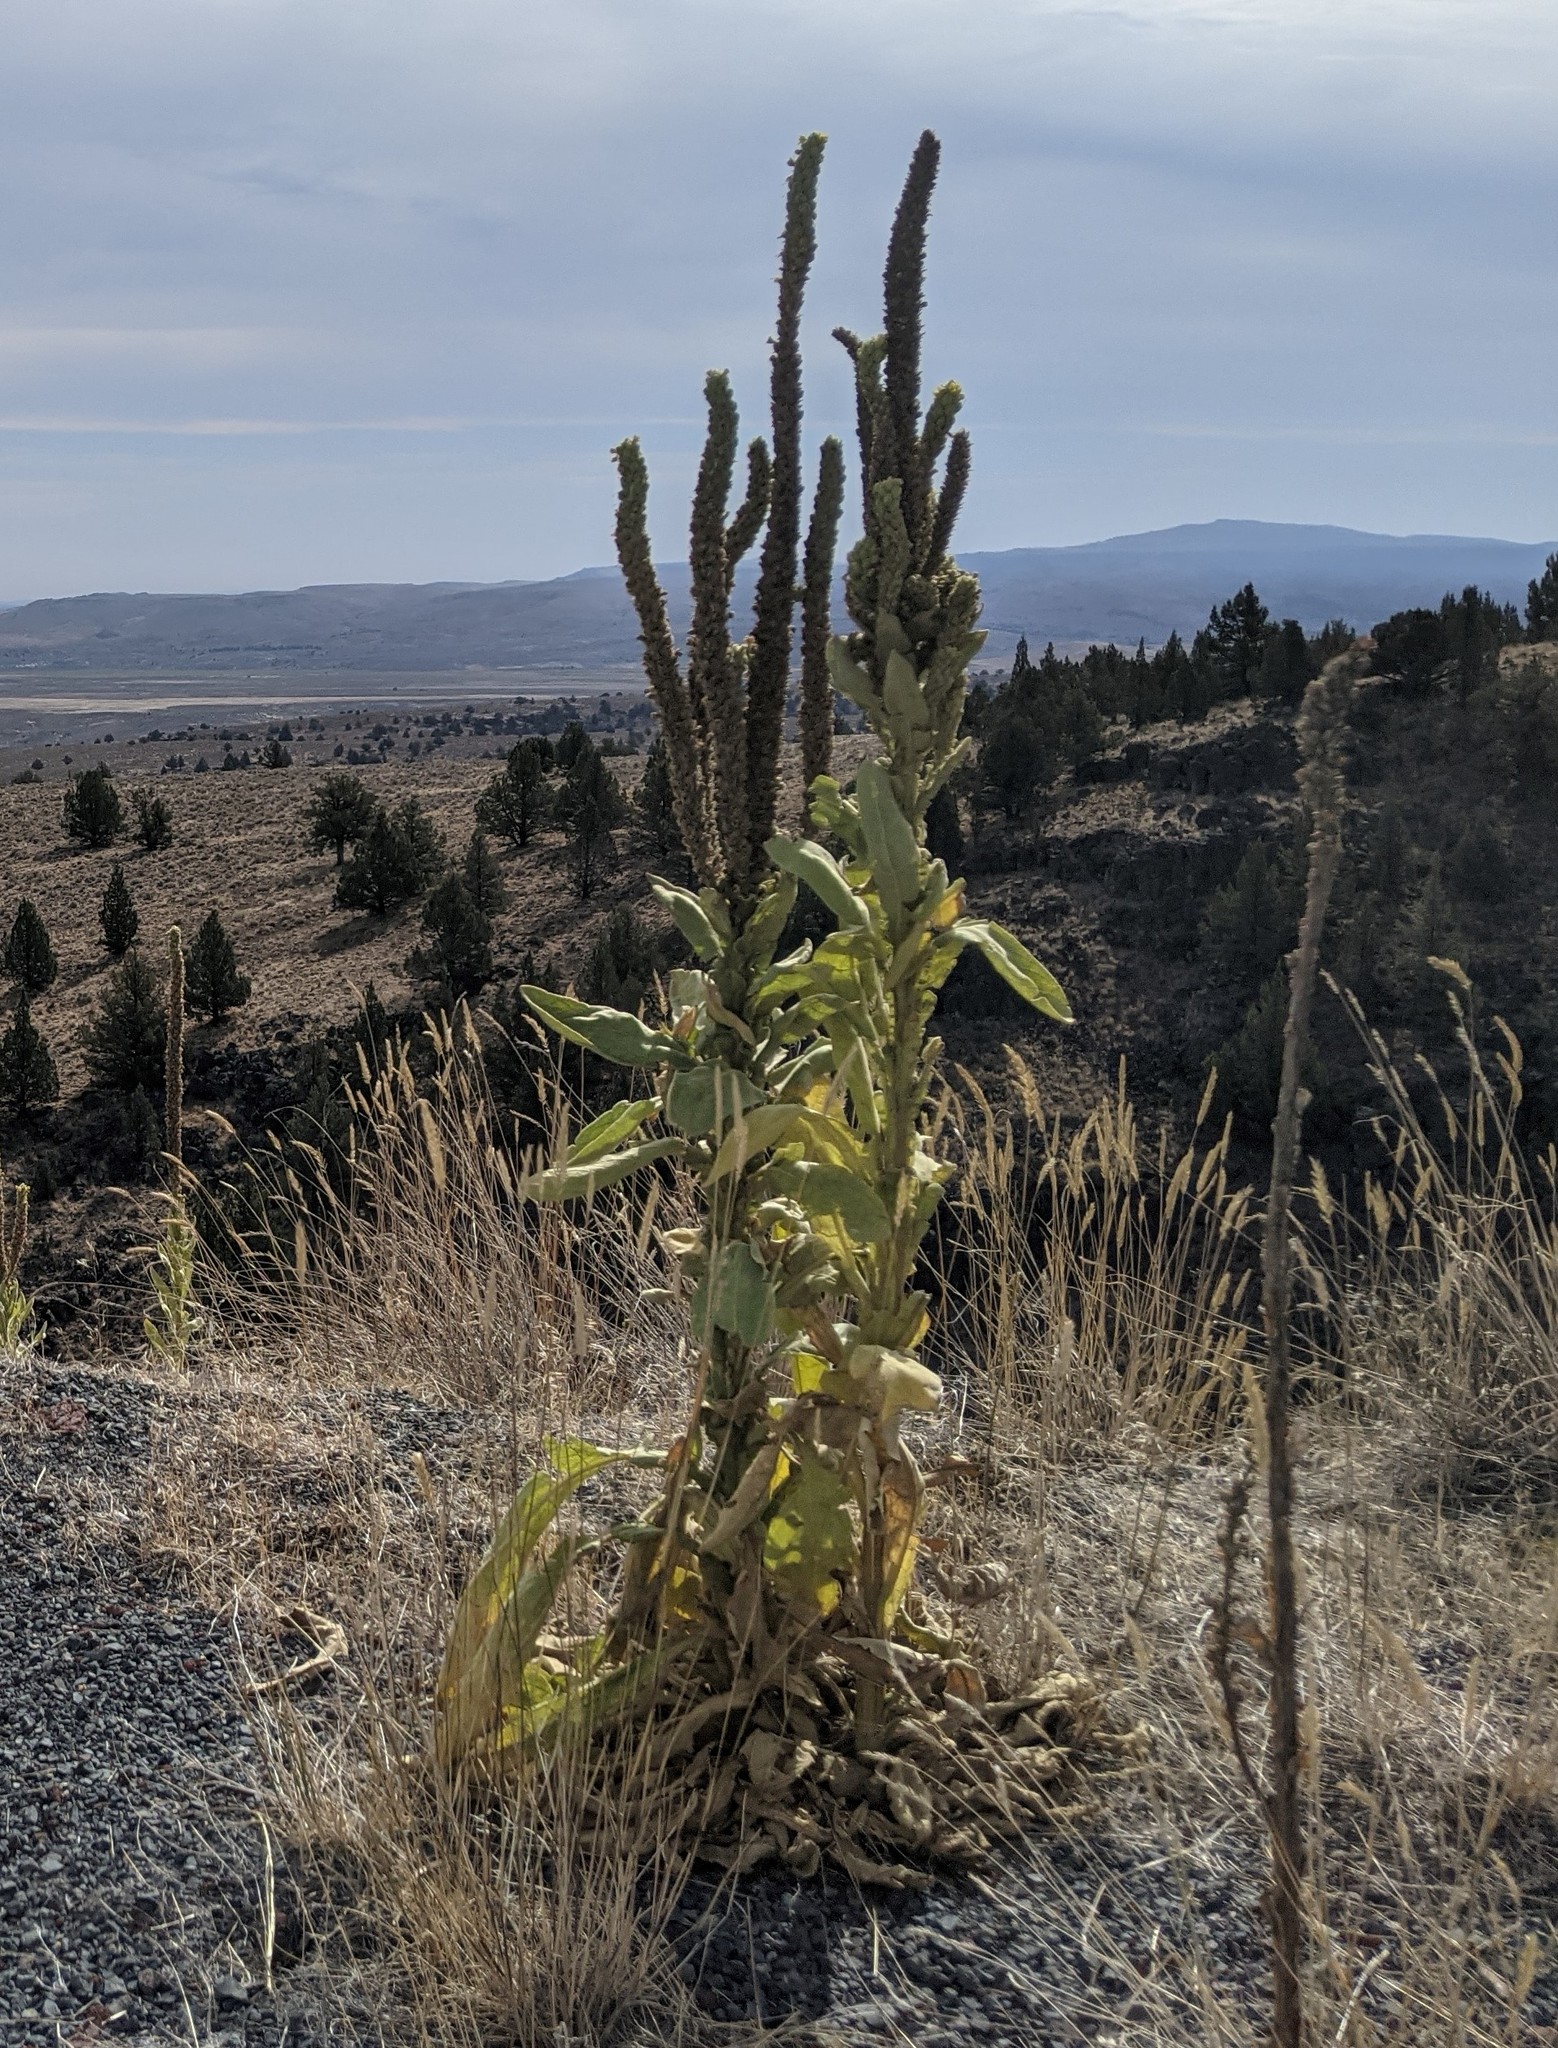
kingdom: Plantae
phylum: Tracheophyta
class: Magnoliopsida
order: Lamiales
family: Scrophulariaceae
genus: Verbascum
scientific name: Verbascum thapsus
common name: Common mullein
